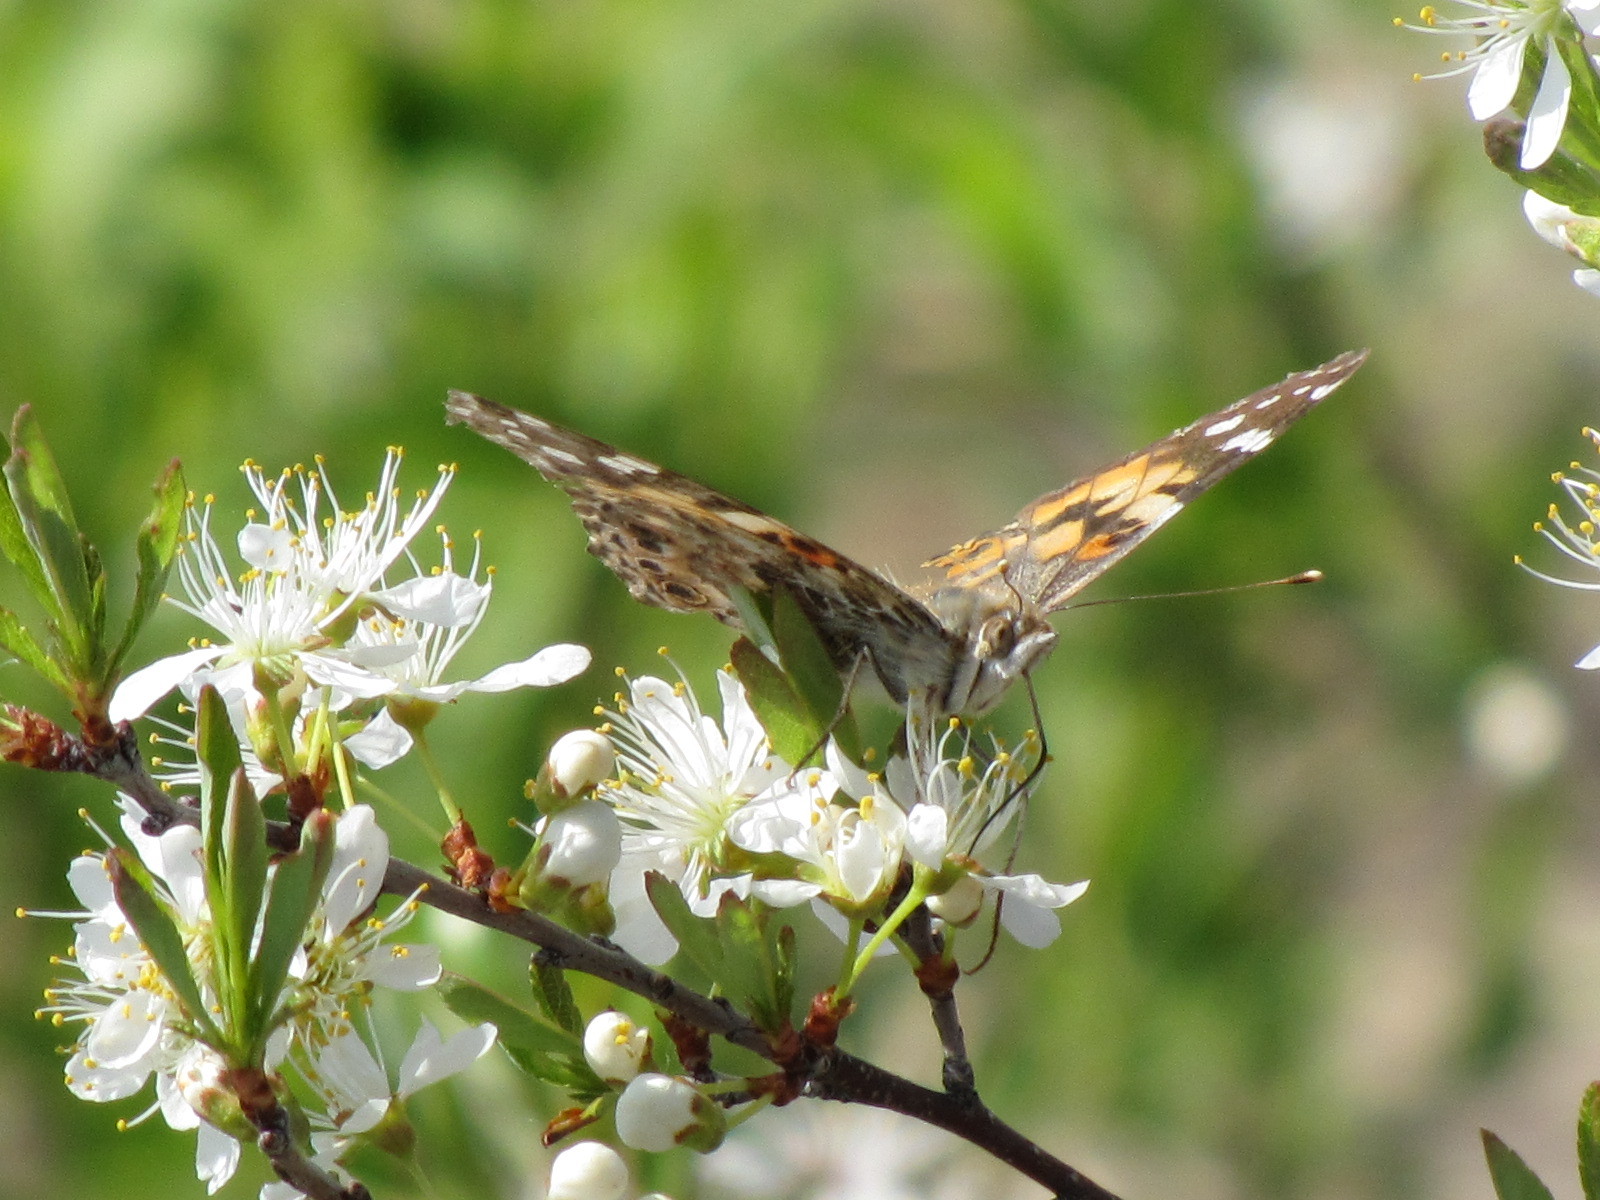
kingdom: Animalia
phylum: Arthropoda
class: Insecta
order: Lepidoptera
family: Nymphalidae
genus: Vanessa
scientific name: Vanessa cardui
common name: Painted lady
